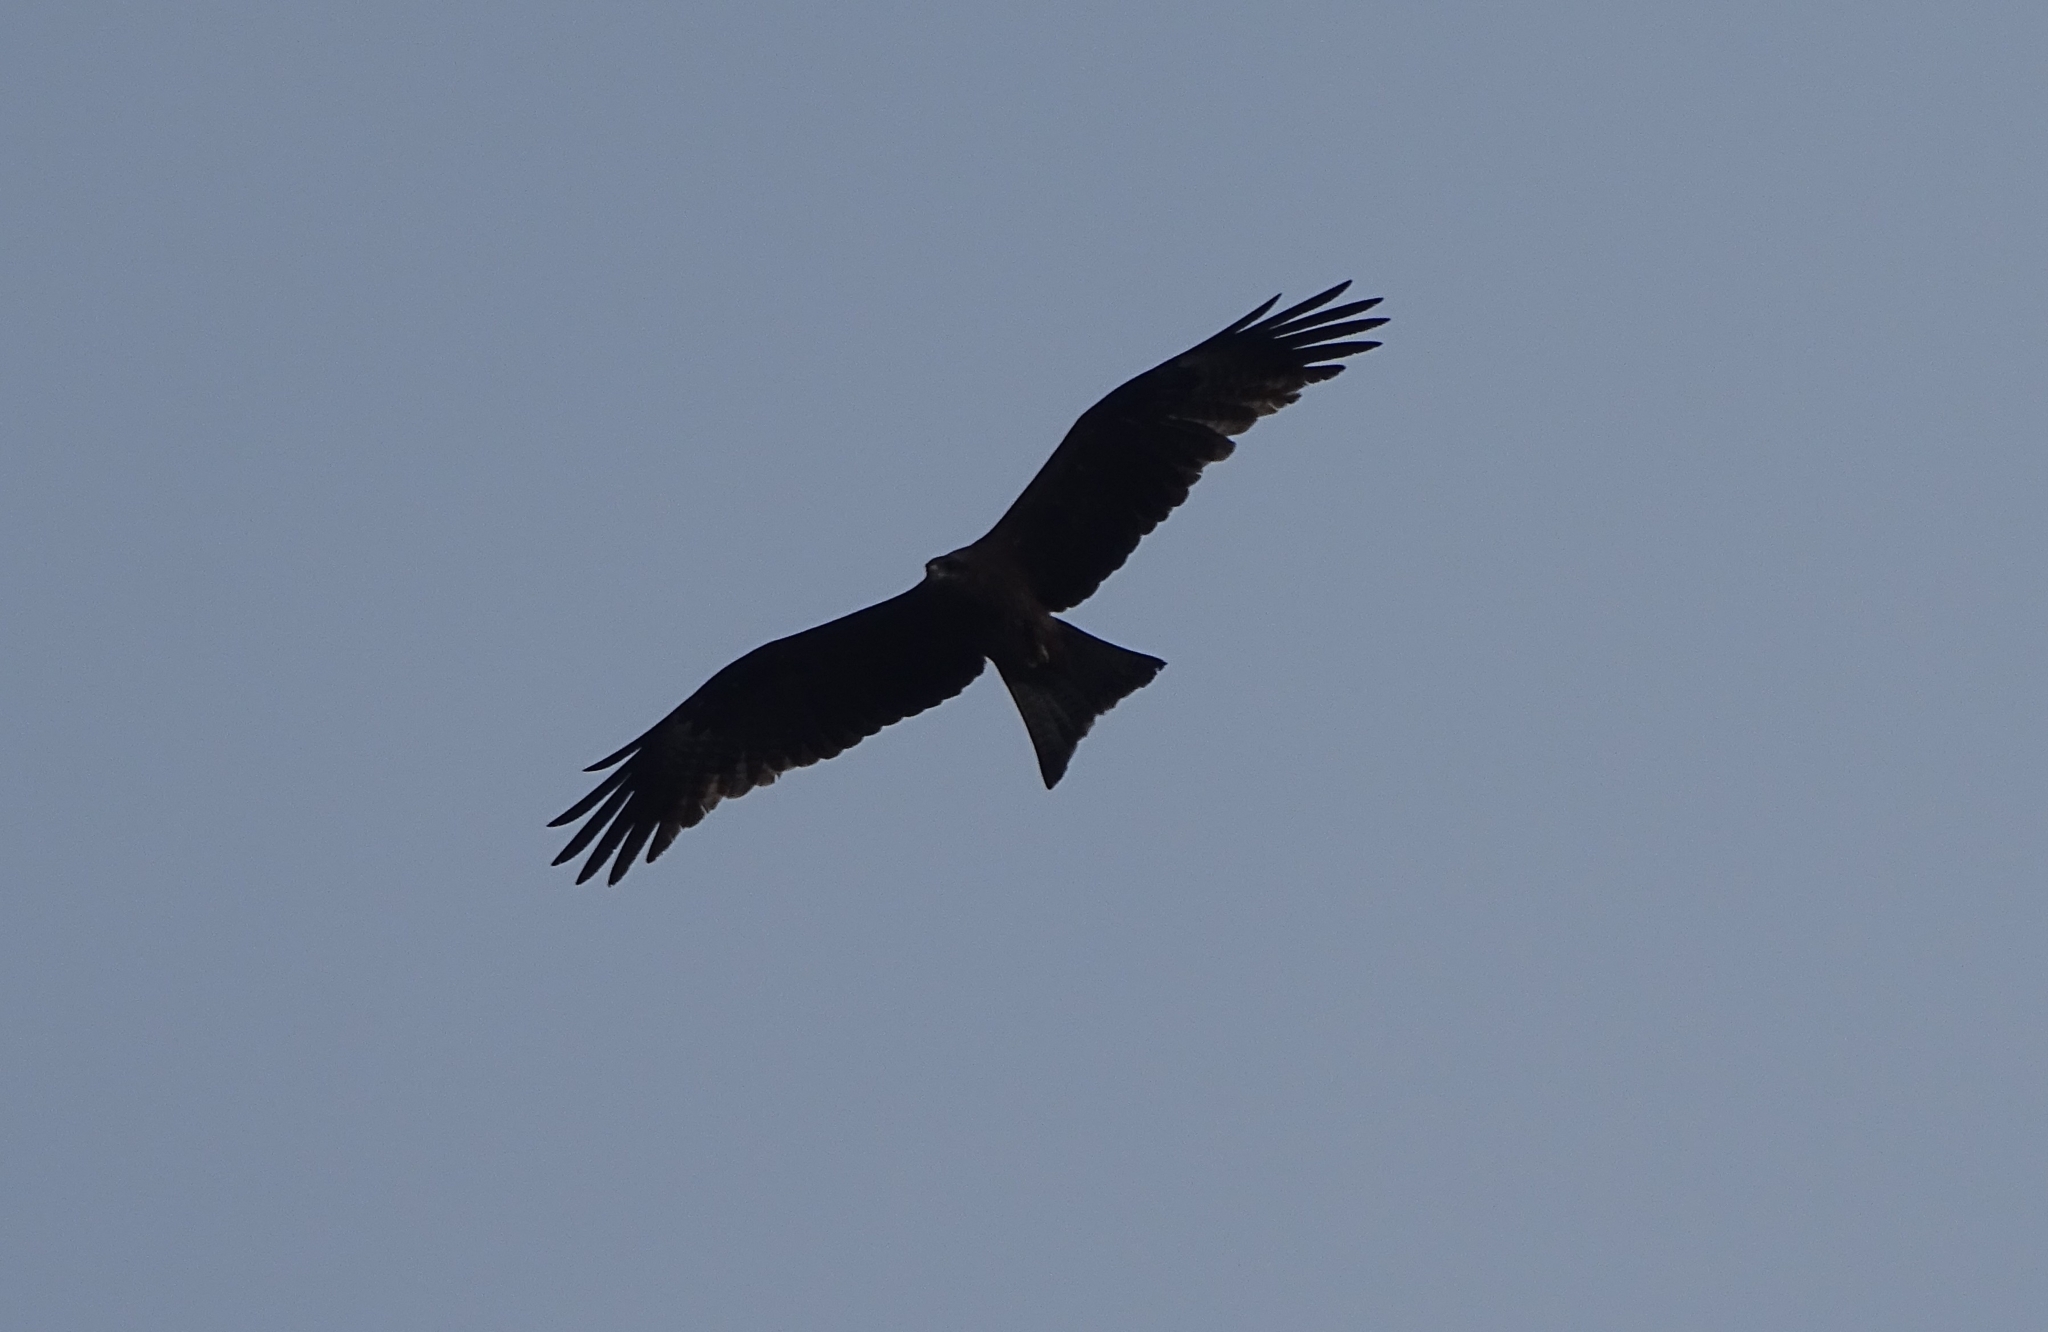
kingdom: Animalia
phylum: Chordata
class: Aves
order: Accipitriformes
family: Accipitridae
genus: Milvus
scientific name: Milvus migrans
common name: Black kite
